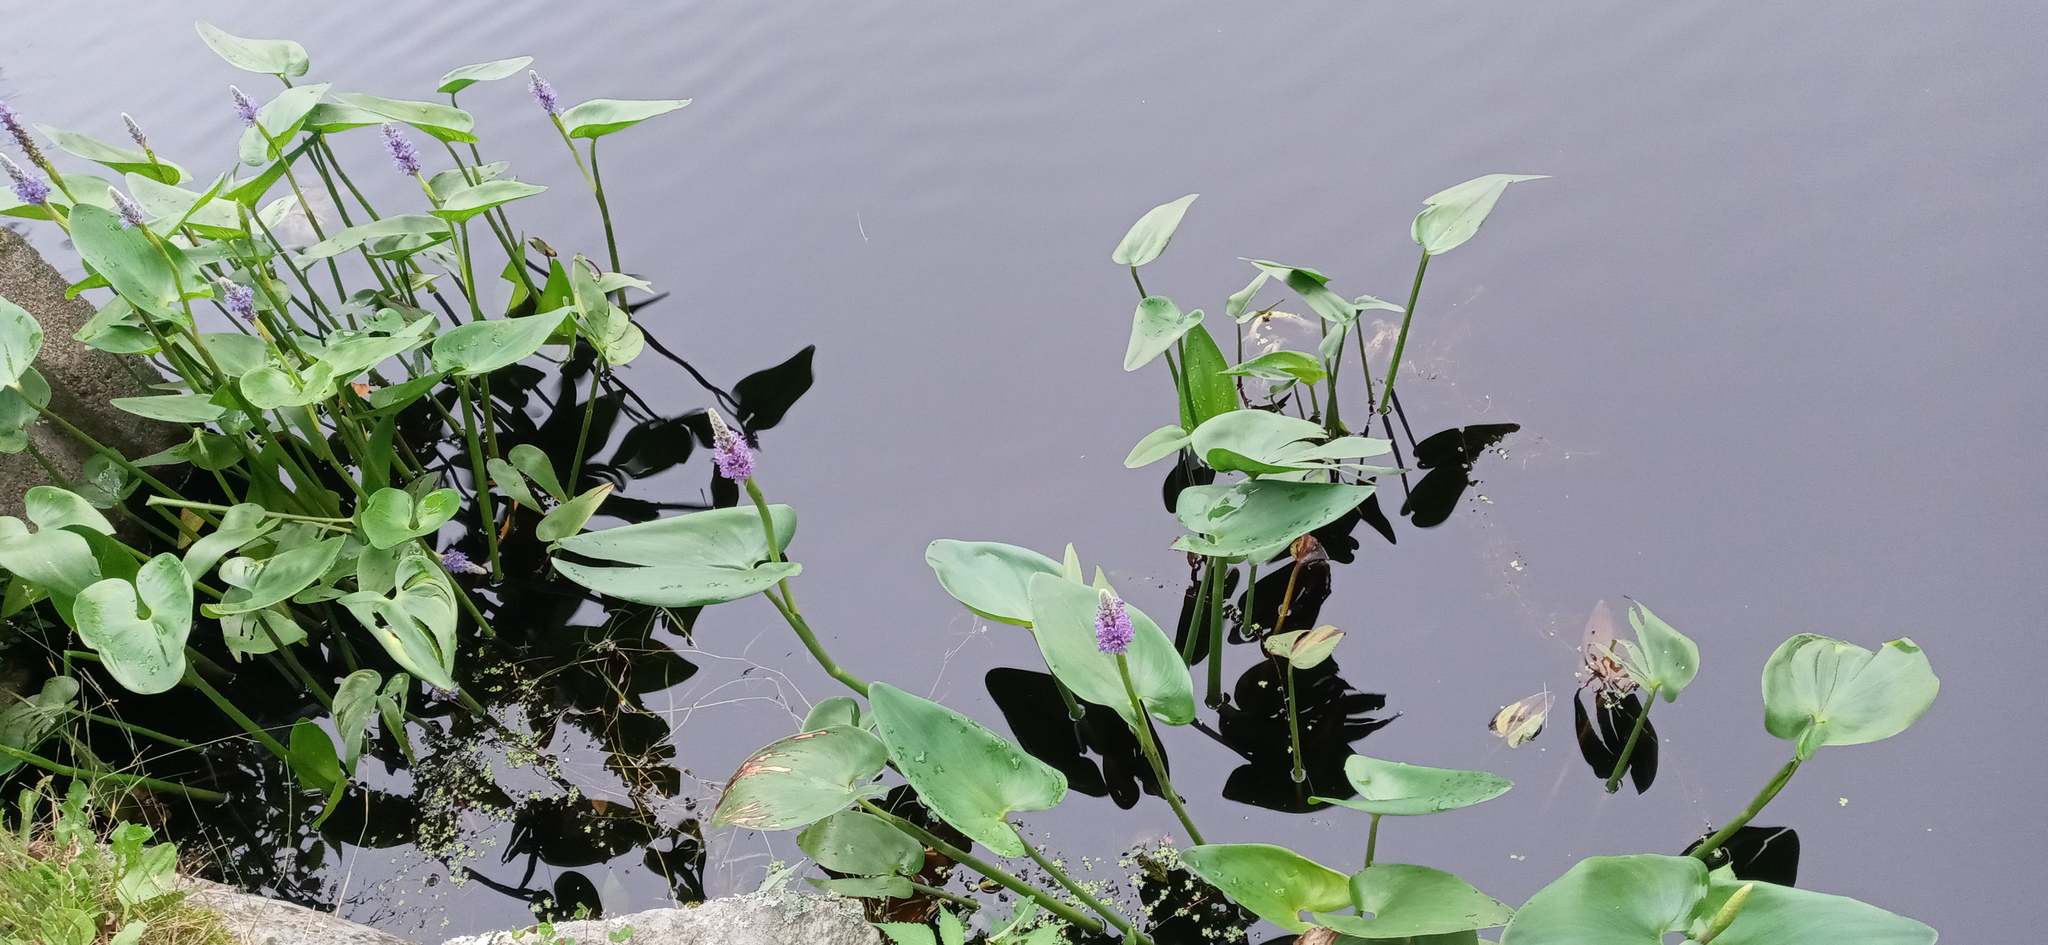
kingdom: Plantae
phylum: Tracheophyta
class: Liliopsida
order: Commelinales
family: Pontederiaceae
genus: Pontederia
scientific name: Pontederia cordata
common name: Pickerelweed
